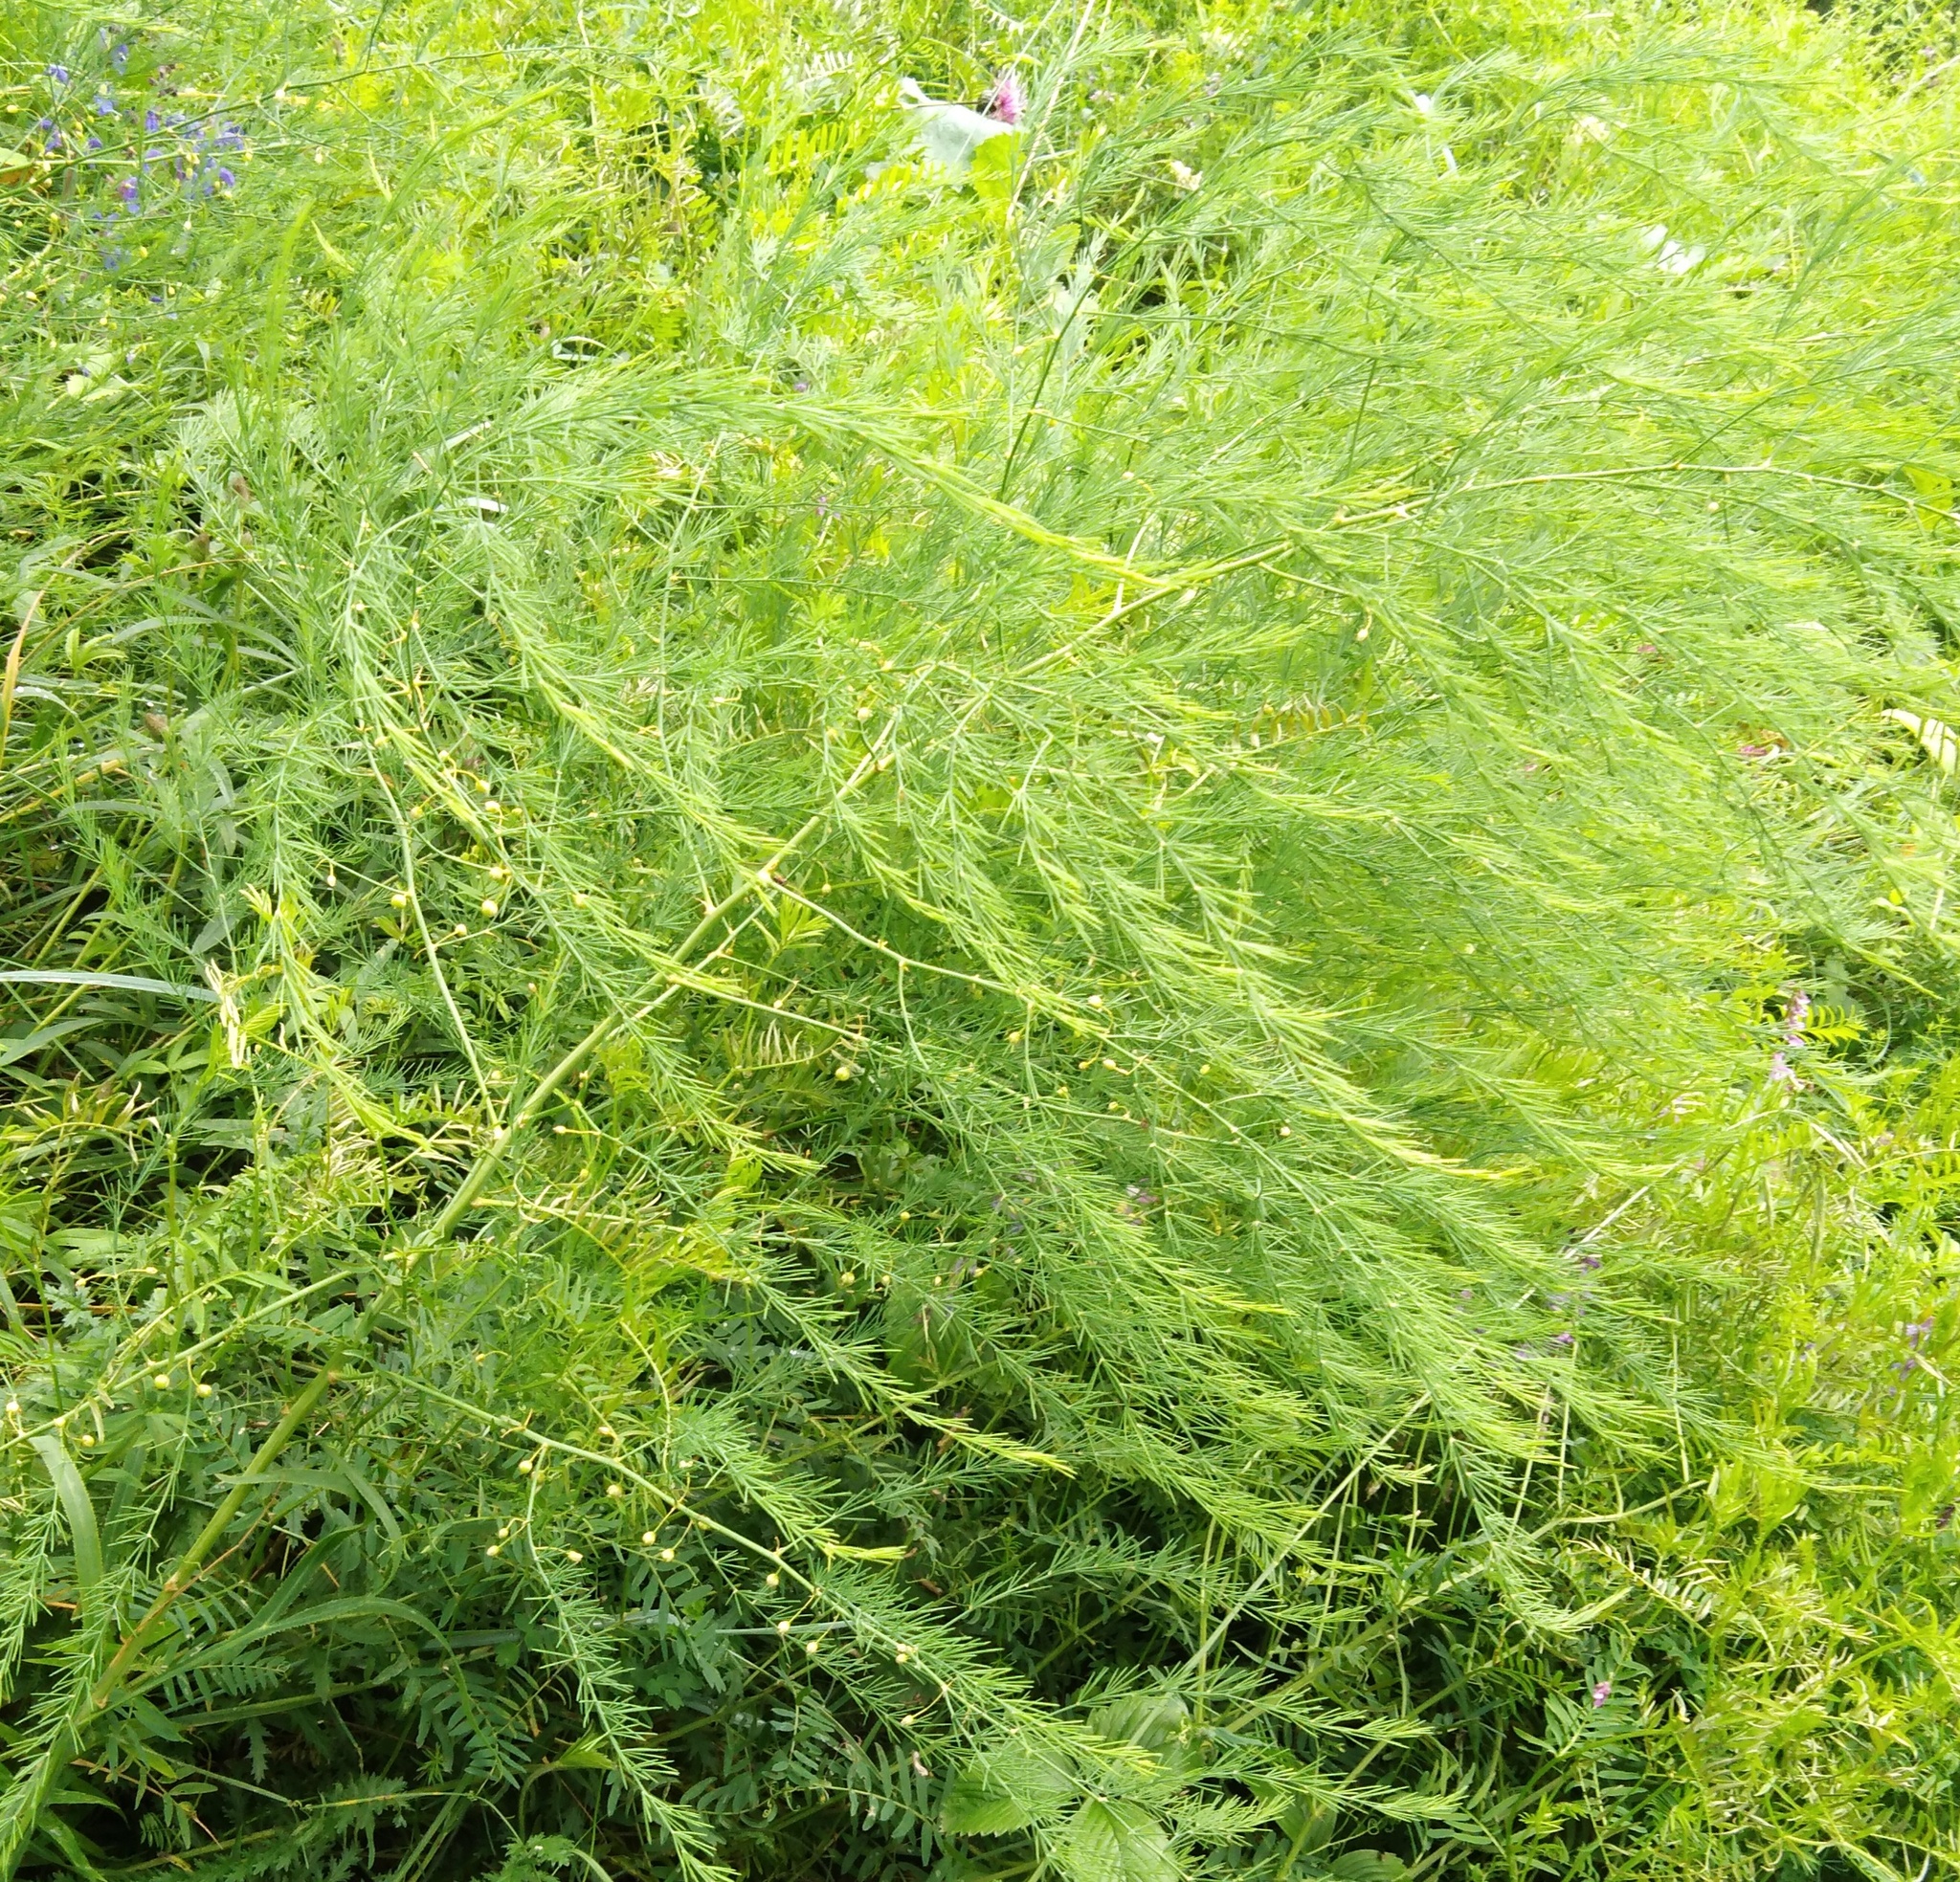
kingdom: Plantae
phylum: Tracheophyta
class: Liliopsida
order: Asparagales
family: Asparagaceae
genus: Asparagus
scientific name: Asparagus officinalis
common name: Garden asparagus
